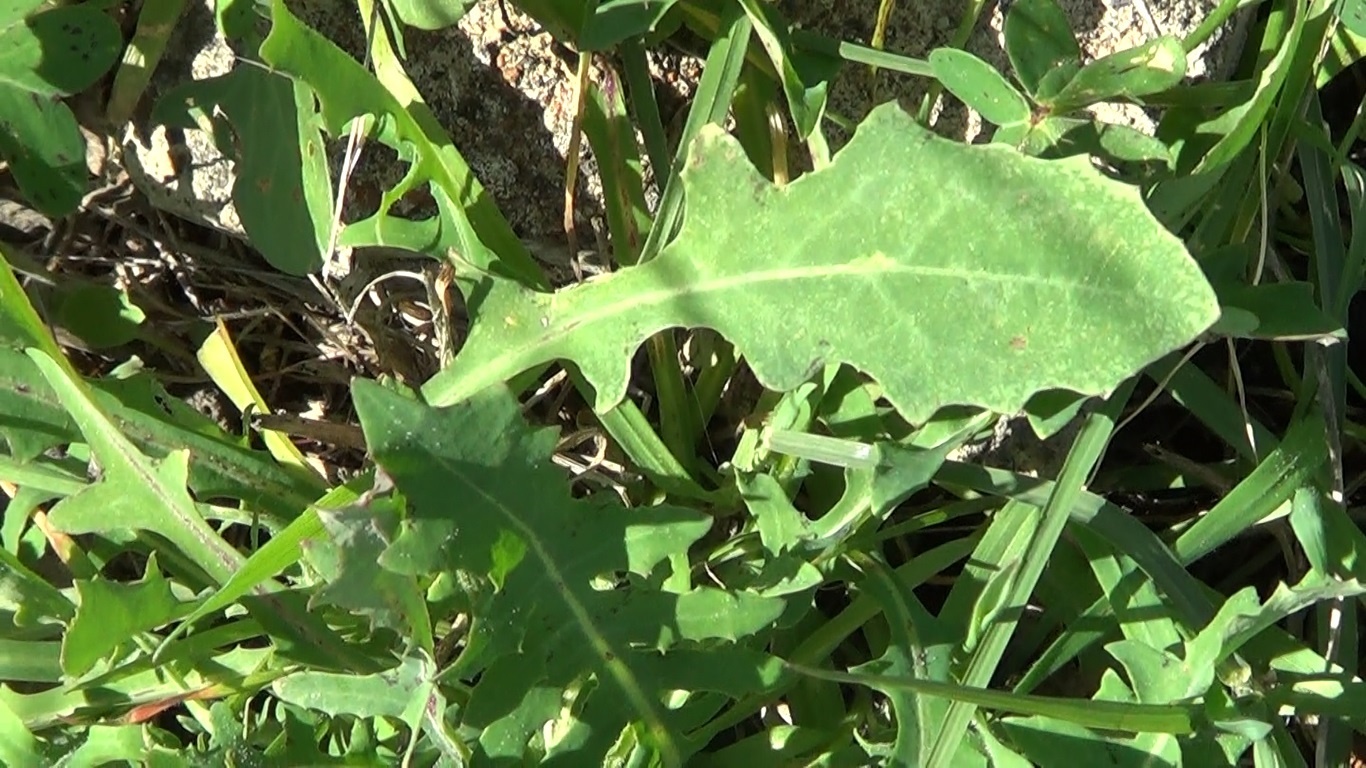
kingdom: Plantae
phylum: Tracheophyta
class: Magnoliopsida
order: Asterales
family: Asteraceae
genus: Reichardia
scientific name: Reichardia picroides
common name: Common brighteyes
